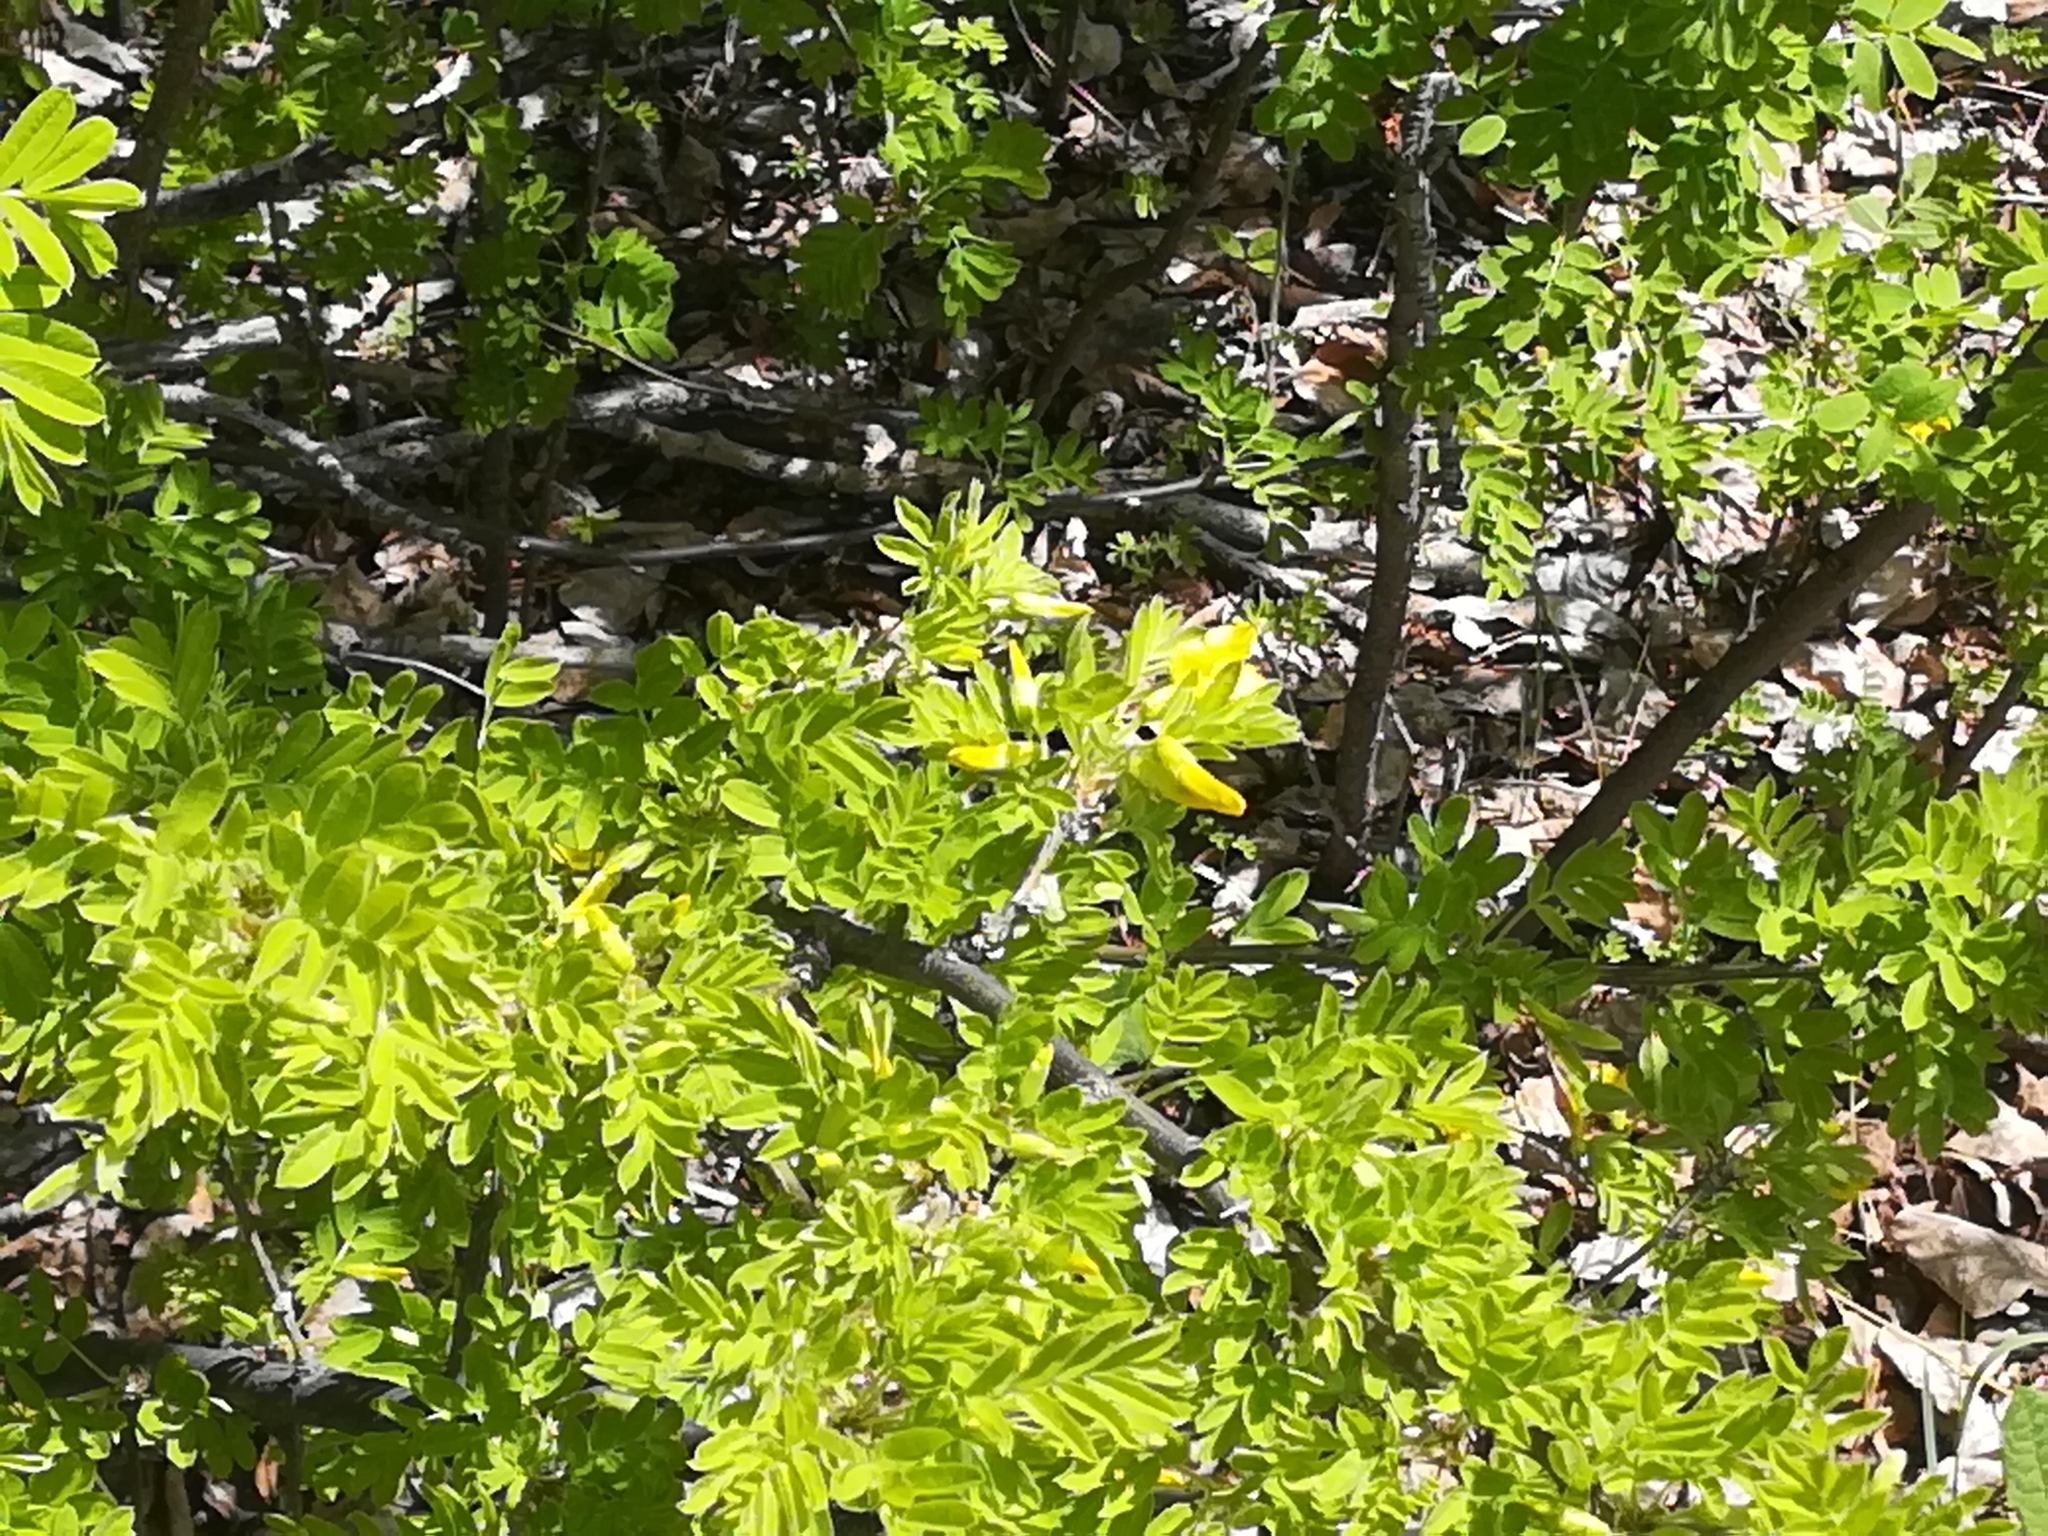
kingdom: Plantae
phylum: Tracheophyta
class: Magnoliopsida
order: Fabales
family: Fabaceae
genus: Caragana
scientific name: Caragana arborescens
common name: Siberian peashrub
